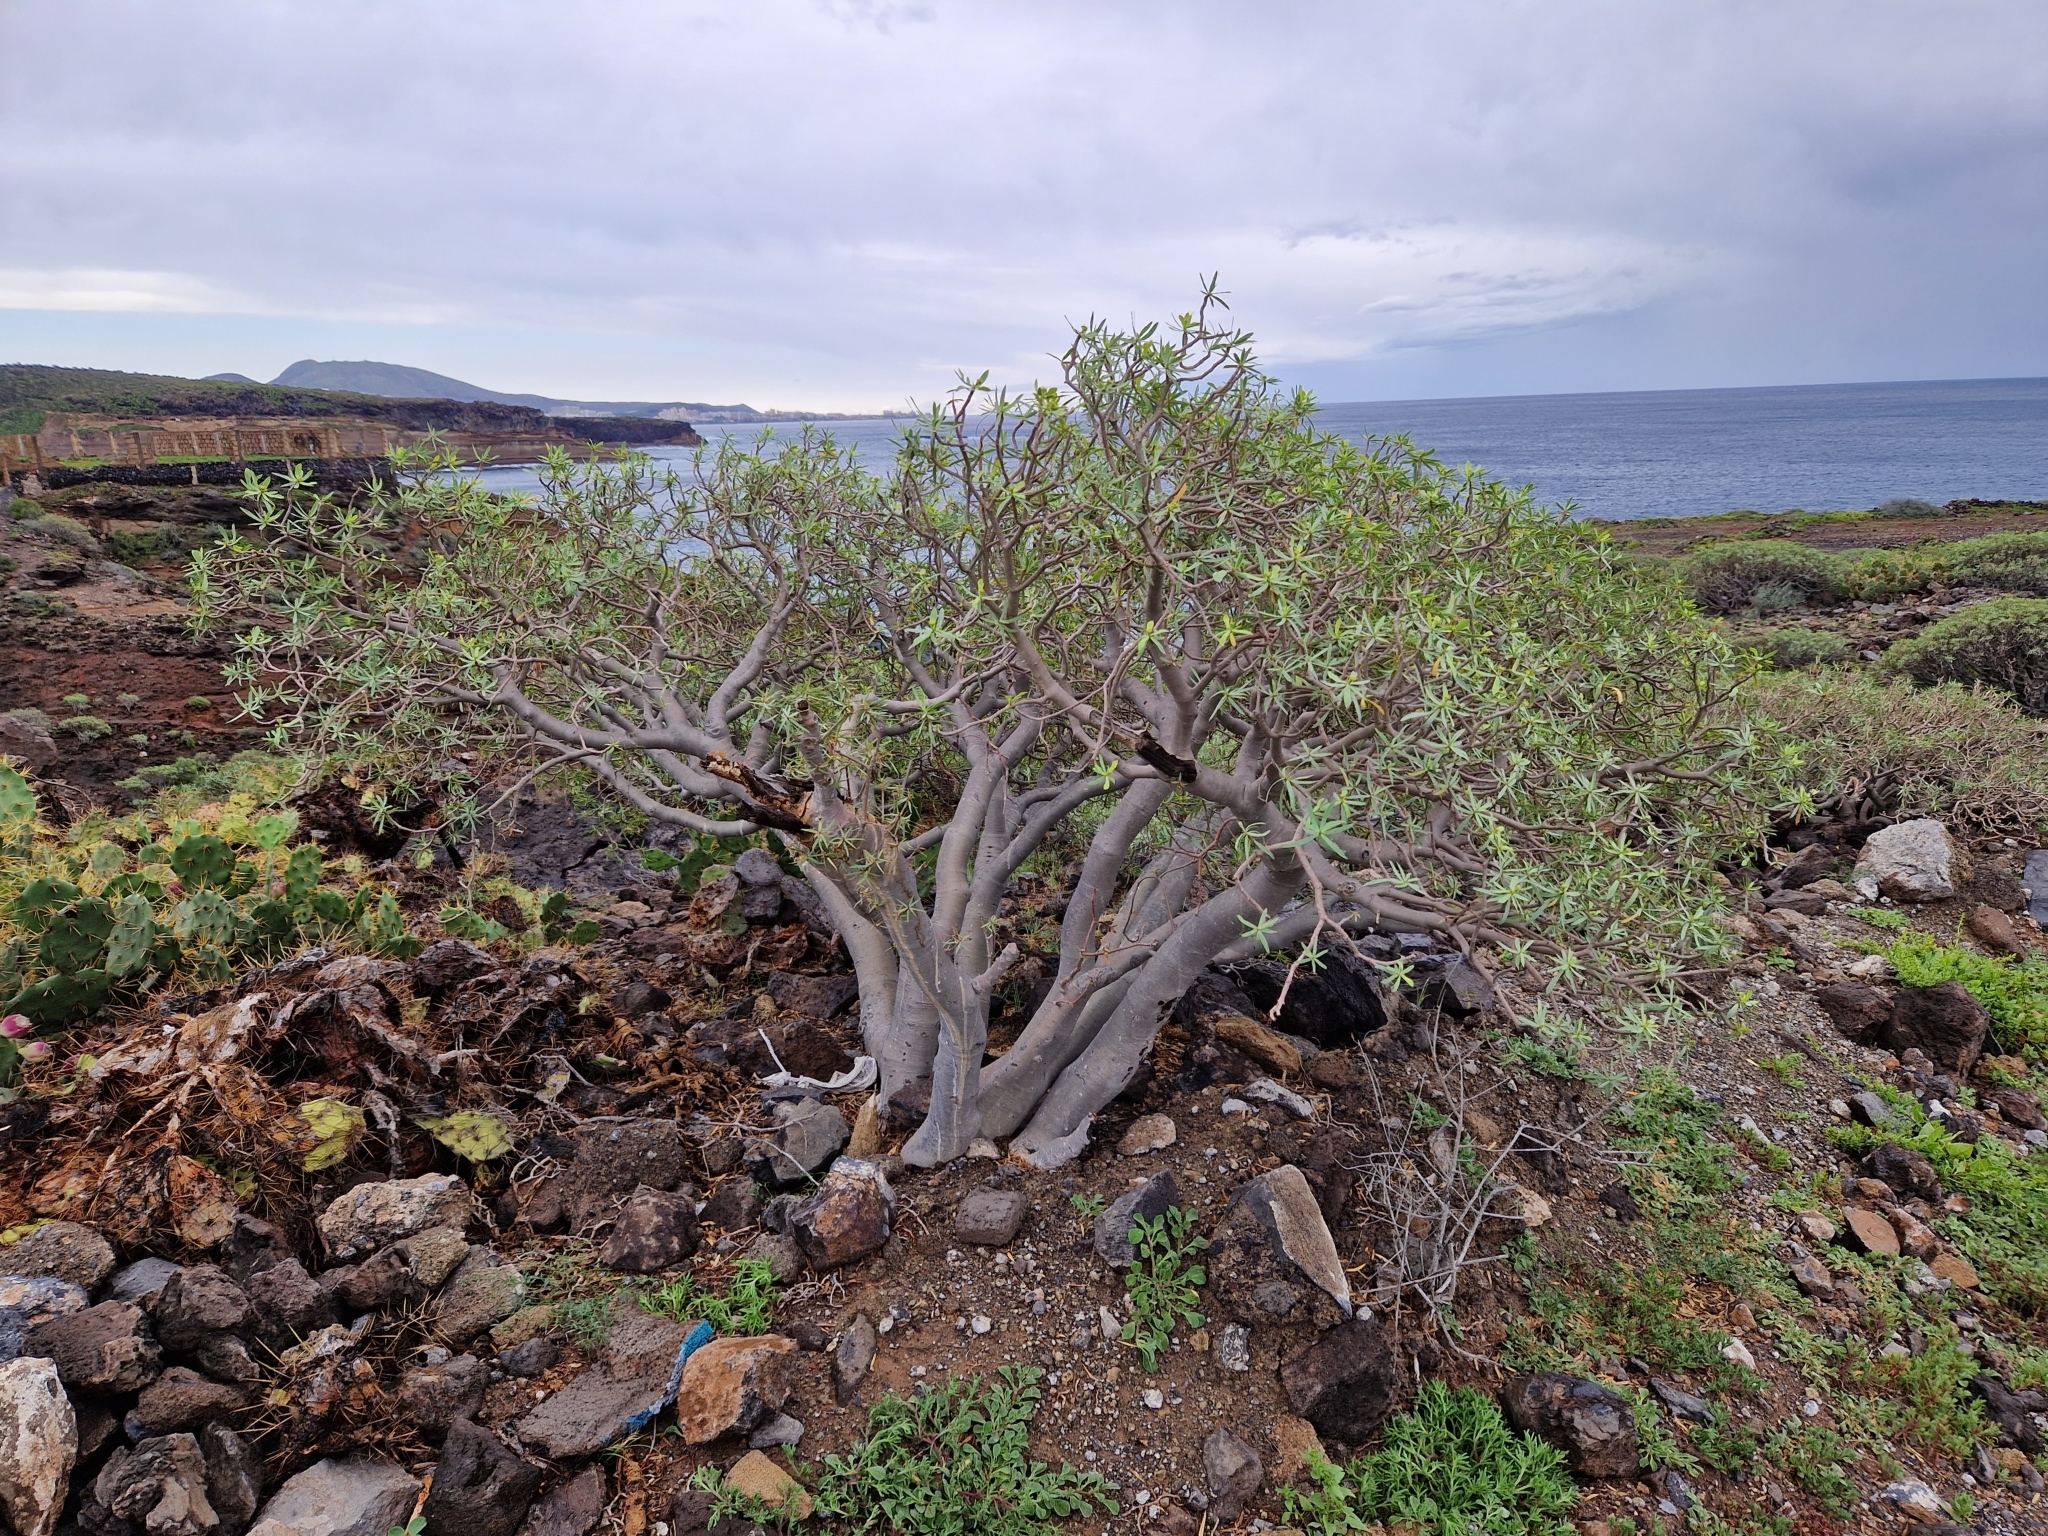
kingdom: Plantae
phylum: Tracheophyta
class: Magnoliopsida
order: Malpighiales
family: Euphorbiaceae
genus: Euphorbia
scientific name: Euphorbia balsamifera
